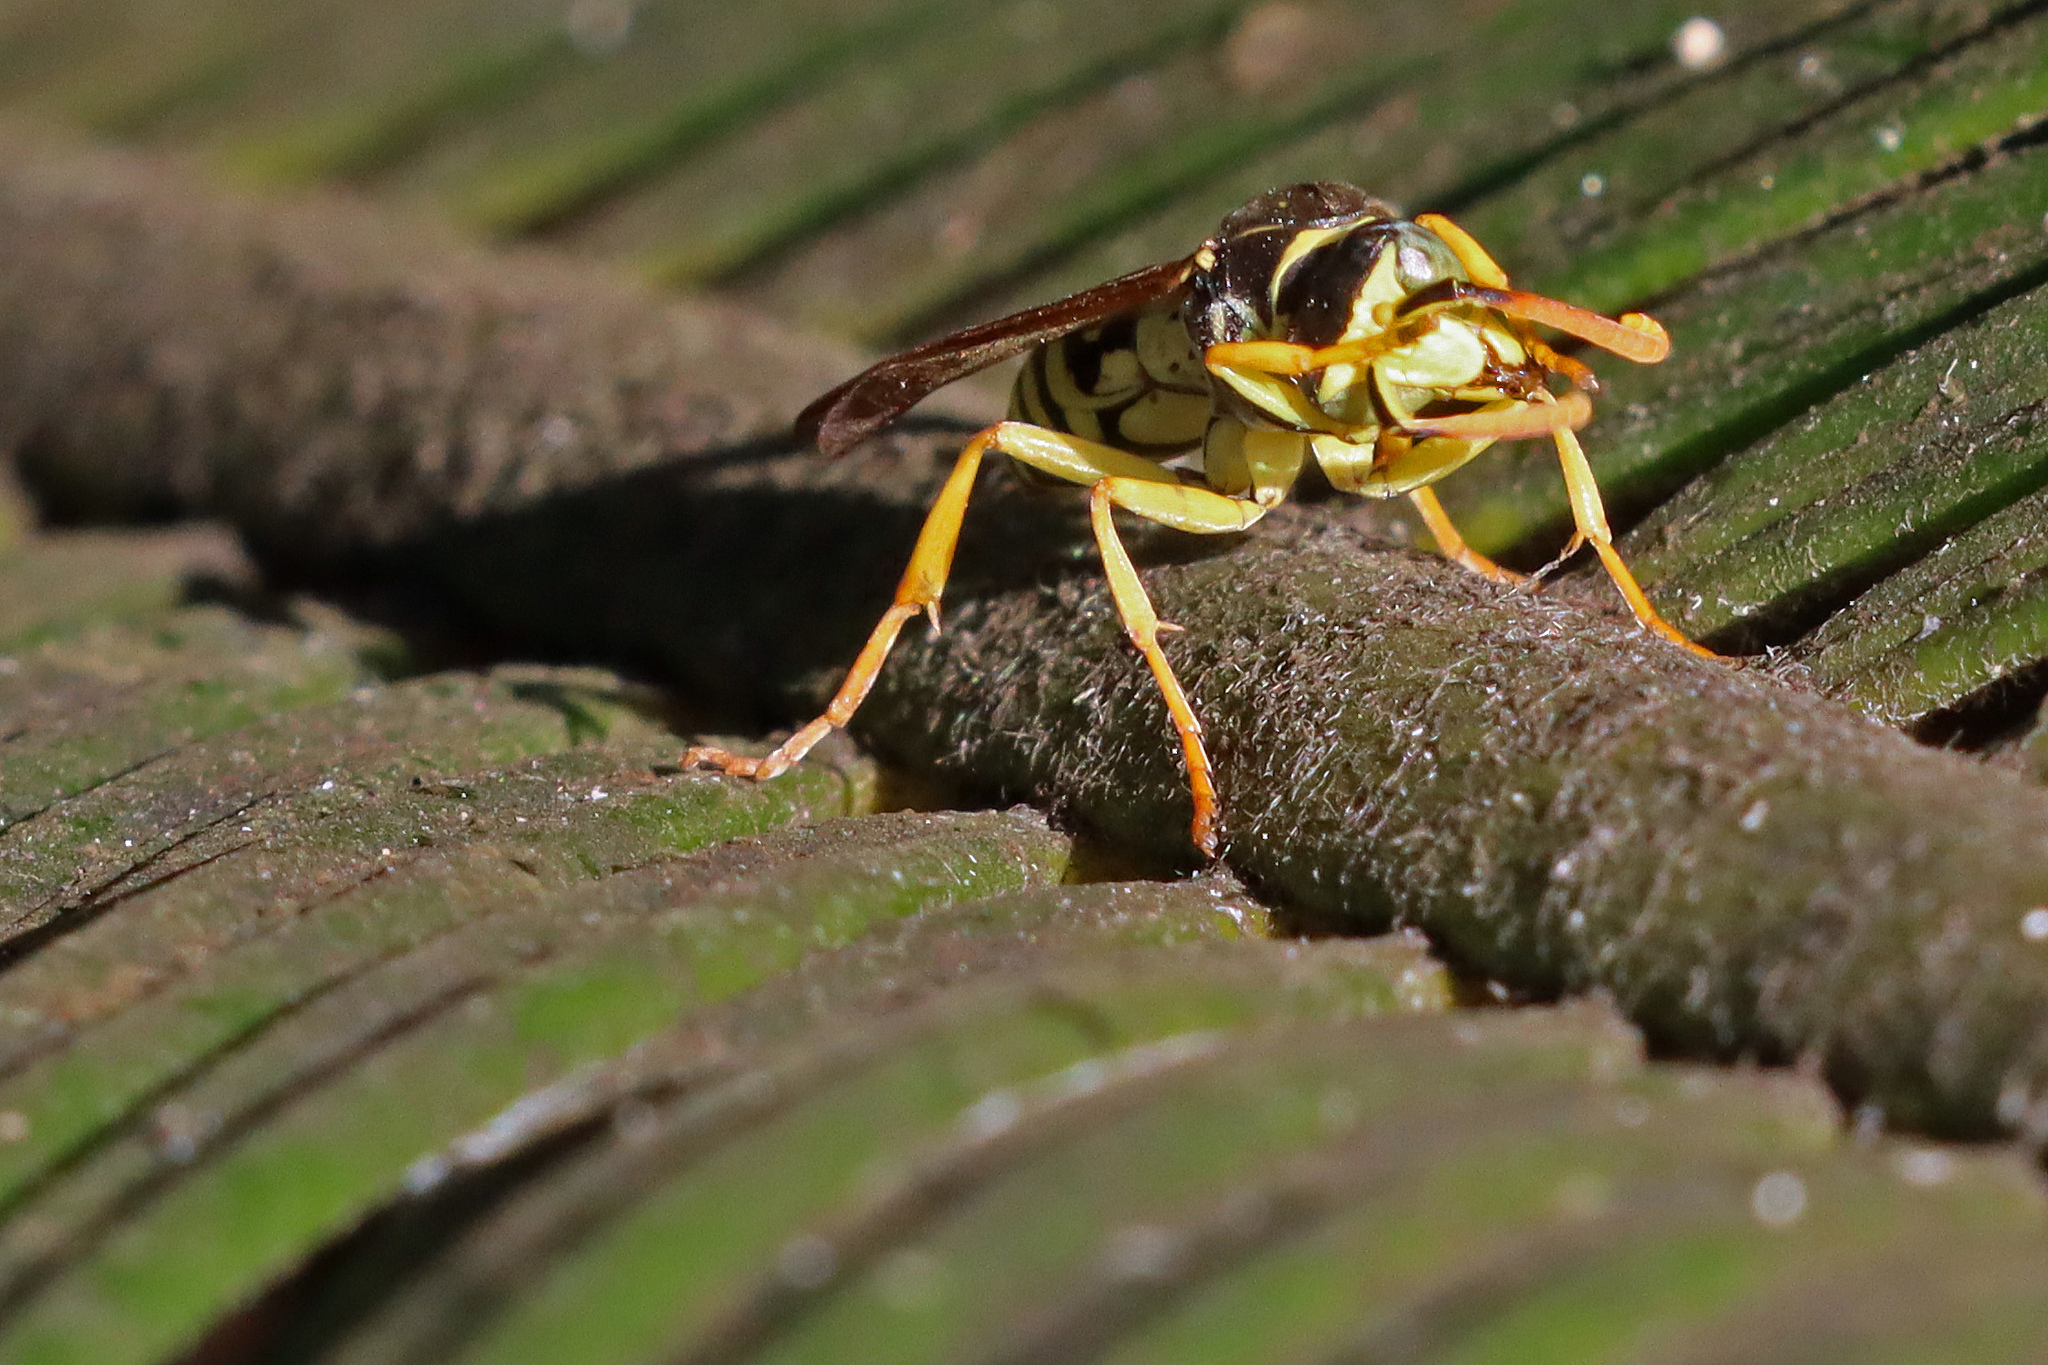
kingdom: Animalia
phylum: Arthropoda
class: Insecta
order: Hymenoptera
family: Eumenidae
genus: Polistes
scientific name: Polistes gallicus
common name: Paper wasp
